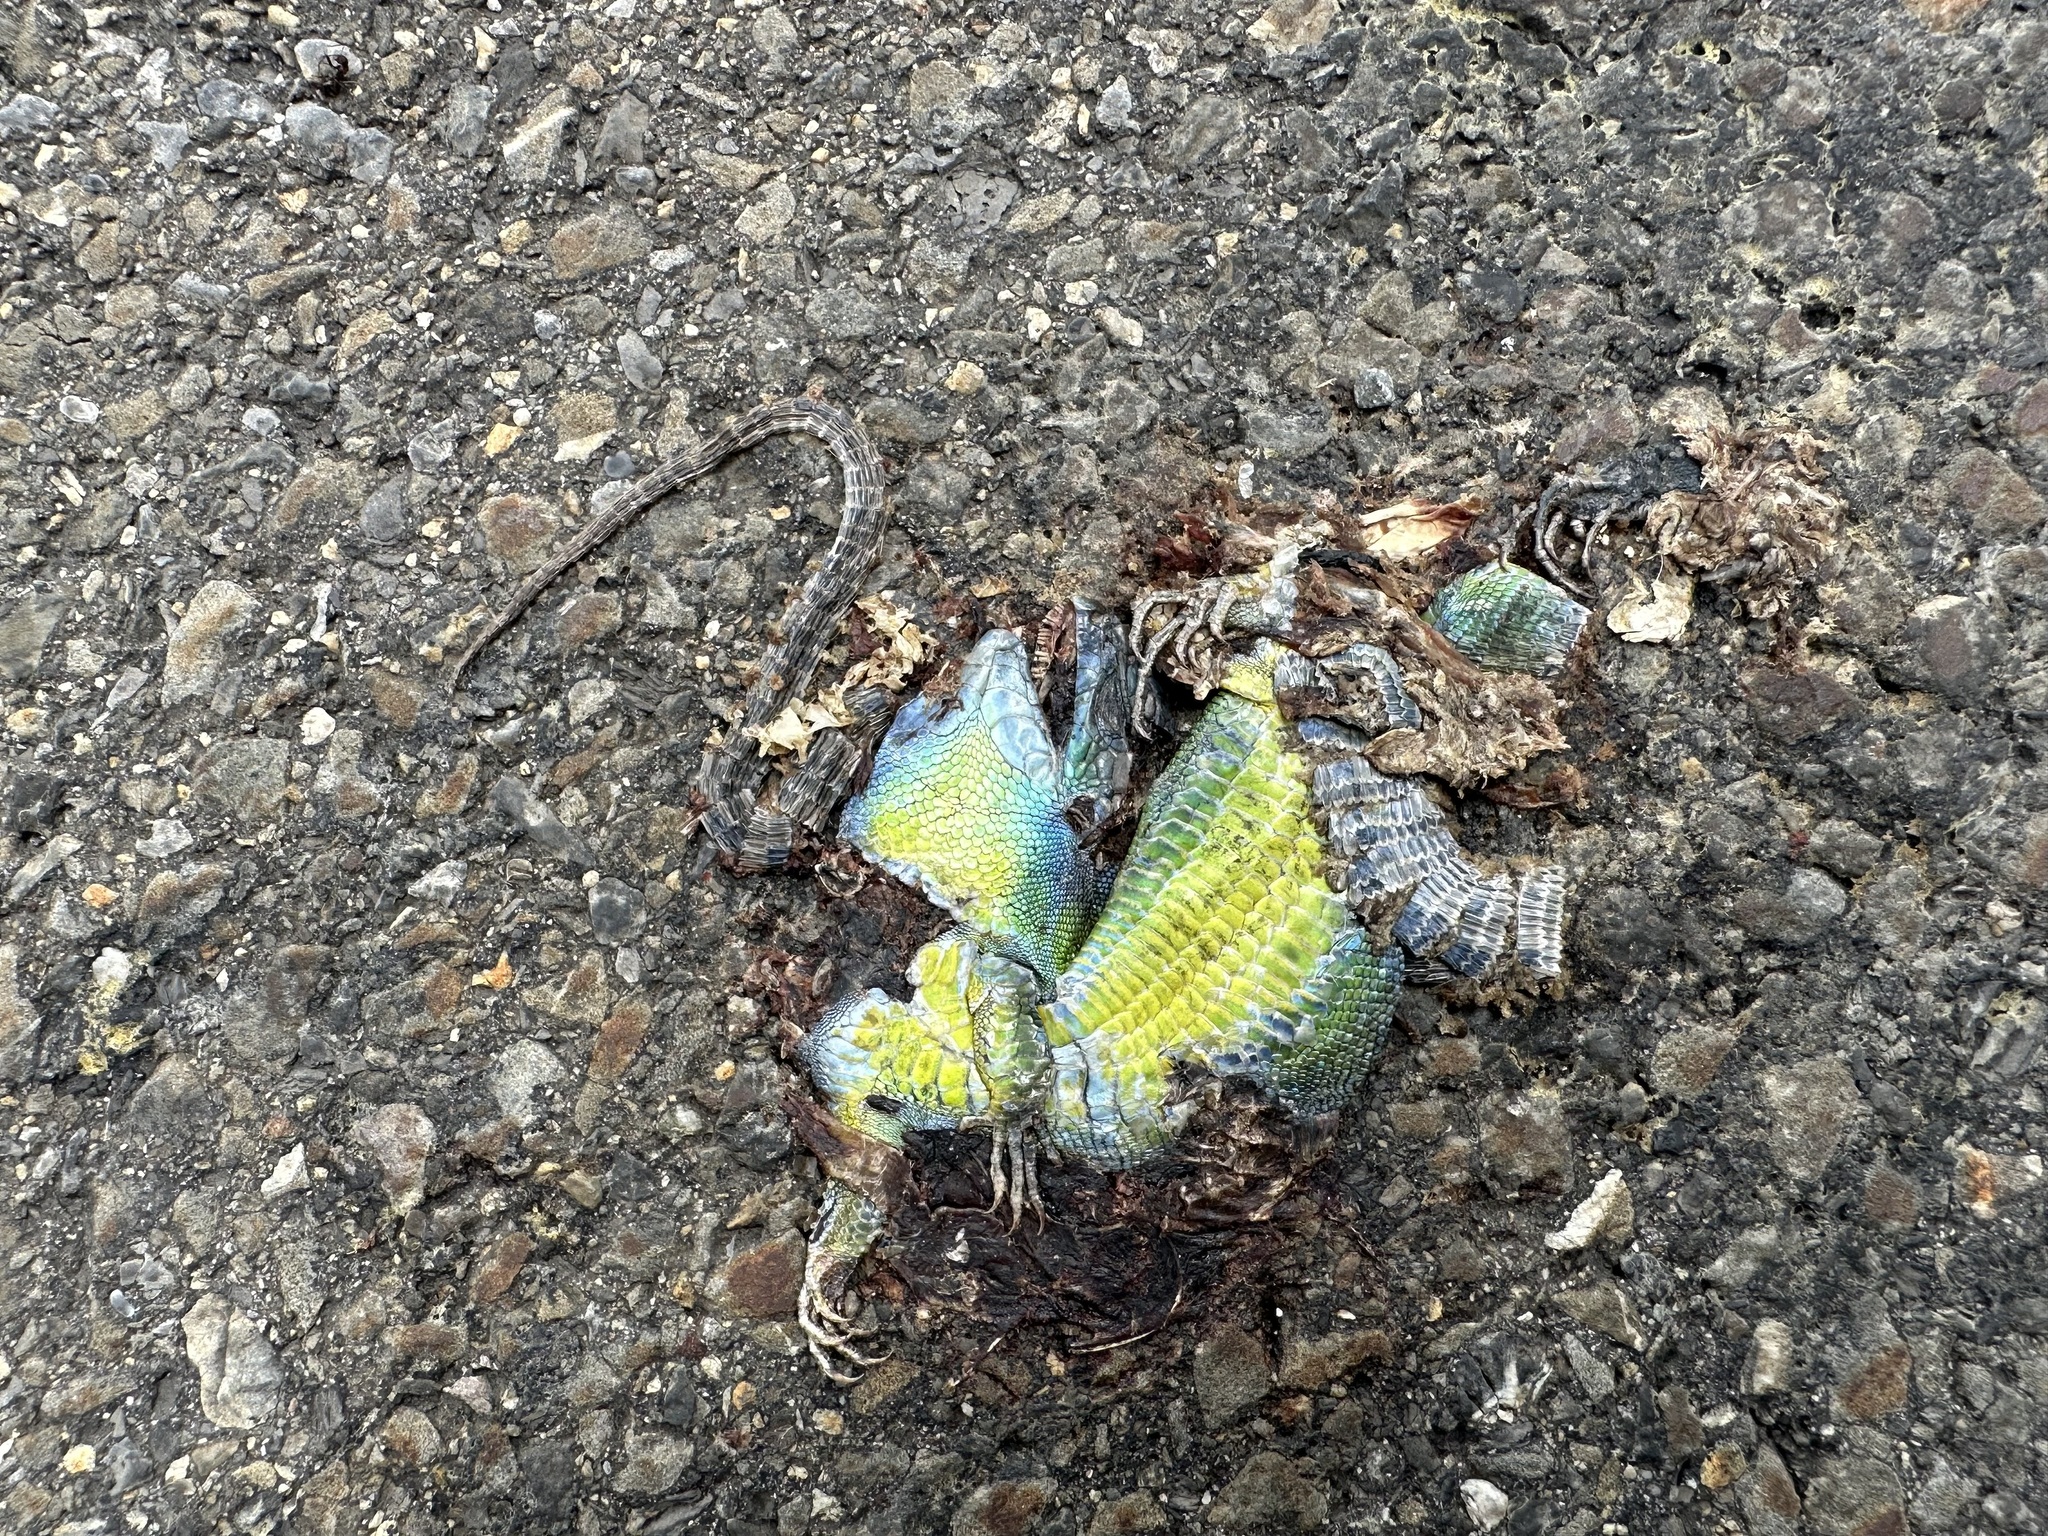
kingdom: Animalia
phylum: Chordata
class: Squamata
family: Lacertidae
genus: Lacerta
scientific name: Lacerta bilineata
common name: Western green lizard
